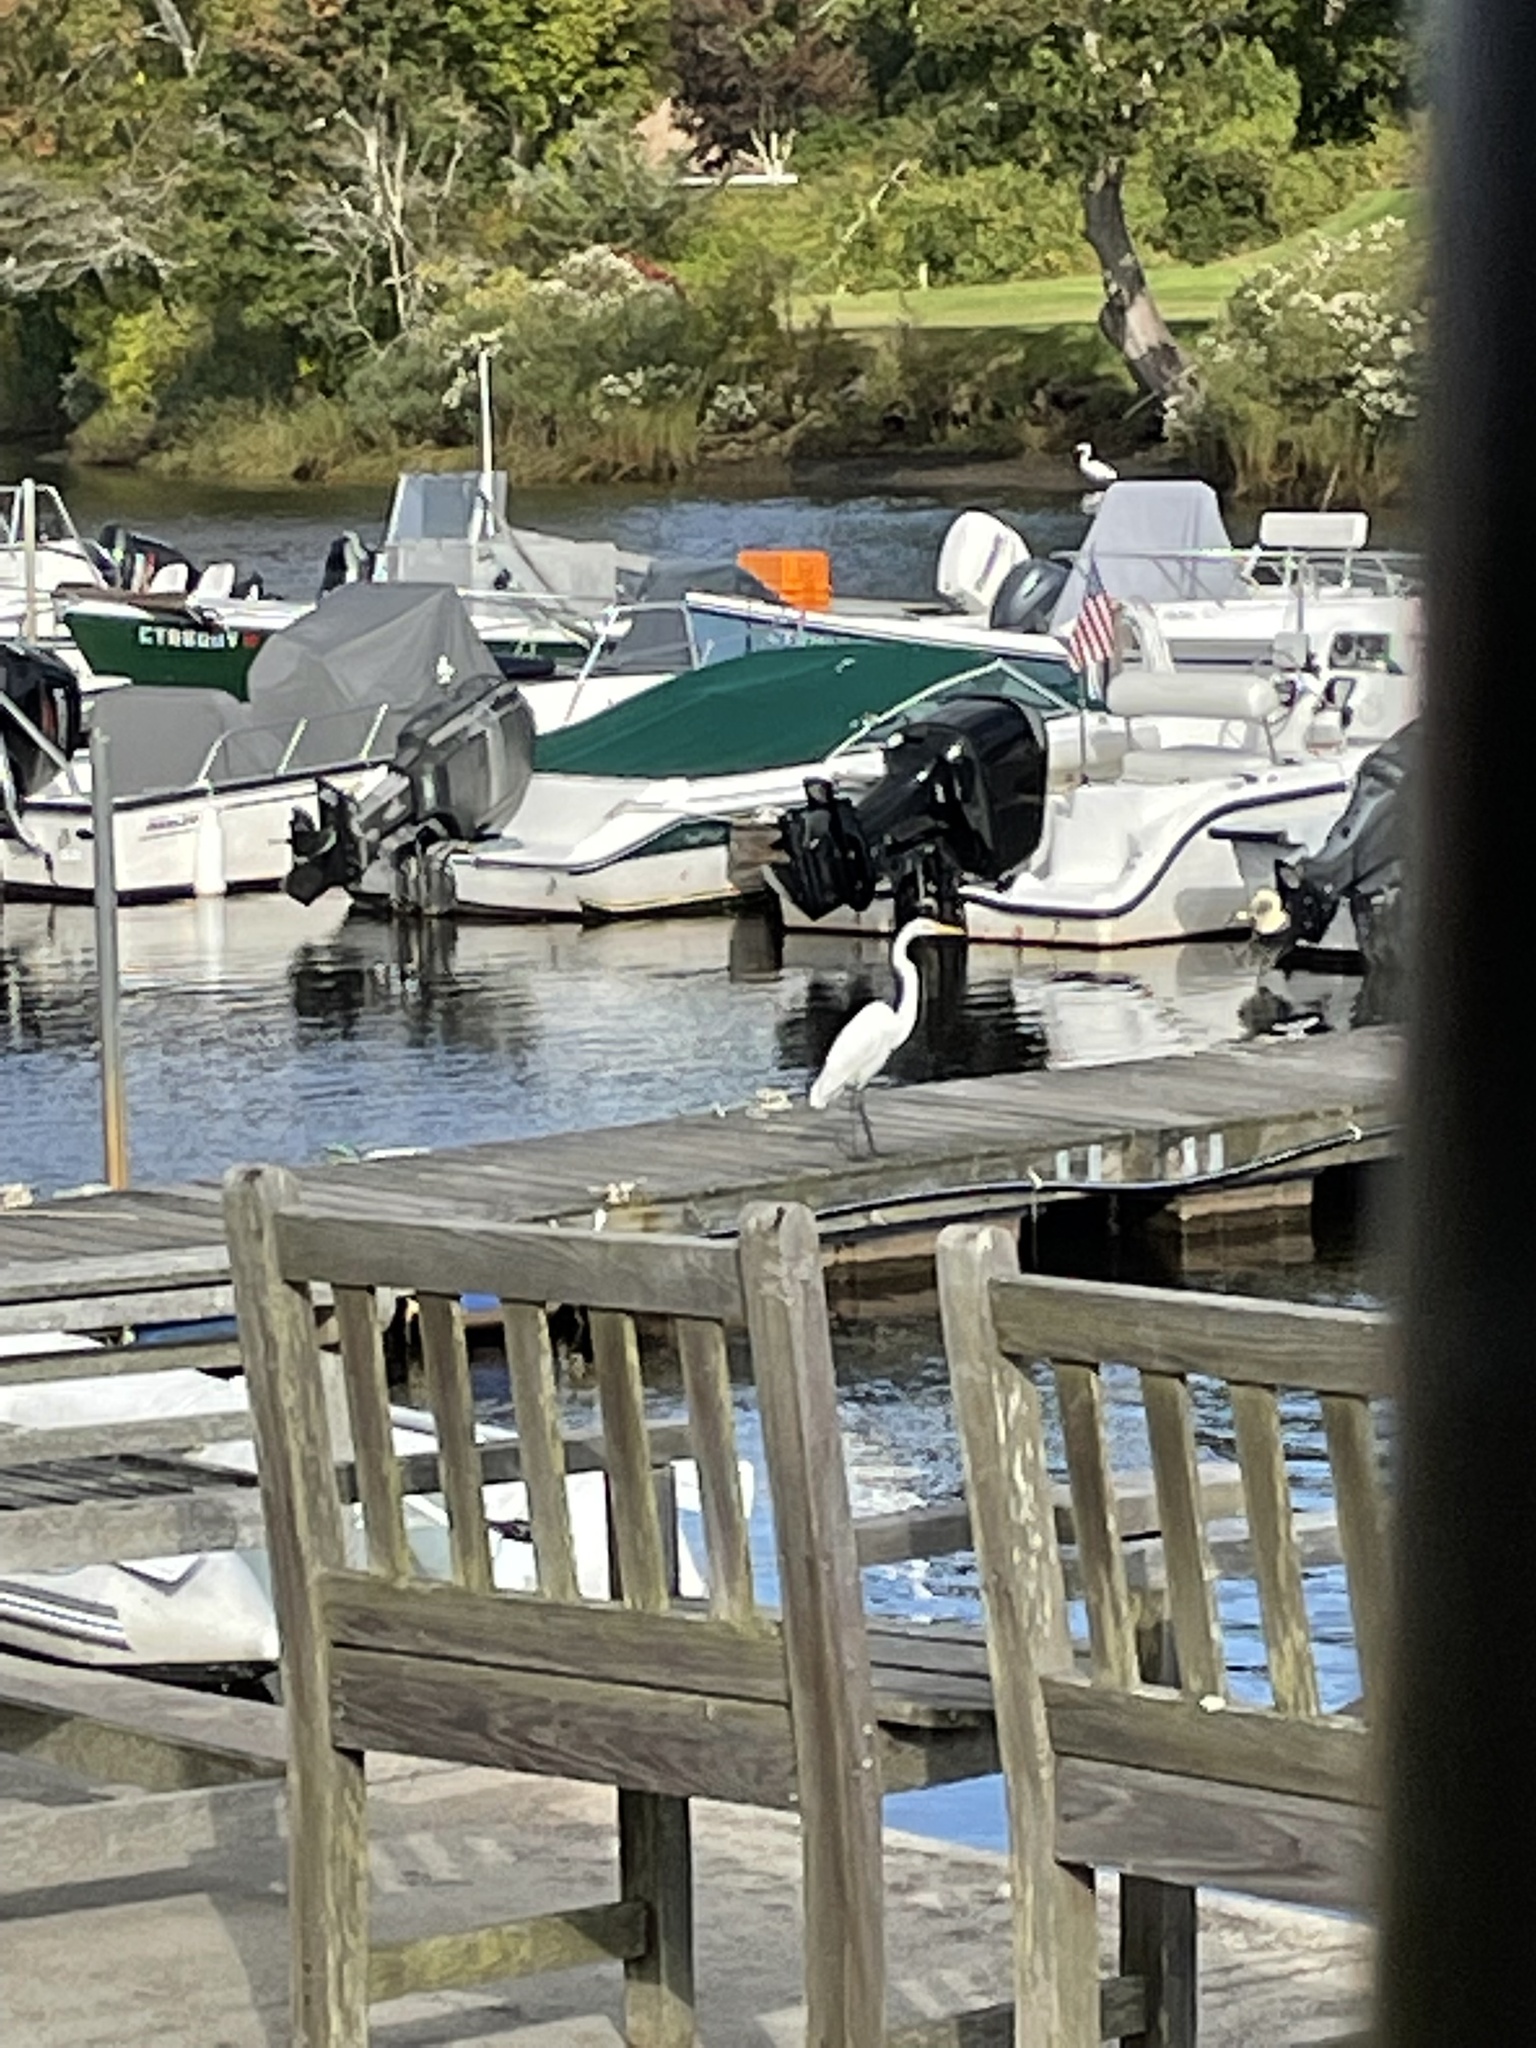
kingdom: Animalia
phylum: Chordata
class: Aves
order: Pelecaniformes
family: Ardeidae
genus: Ardea
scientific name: Ardea alba
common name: Great egret
